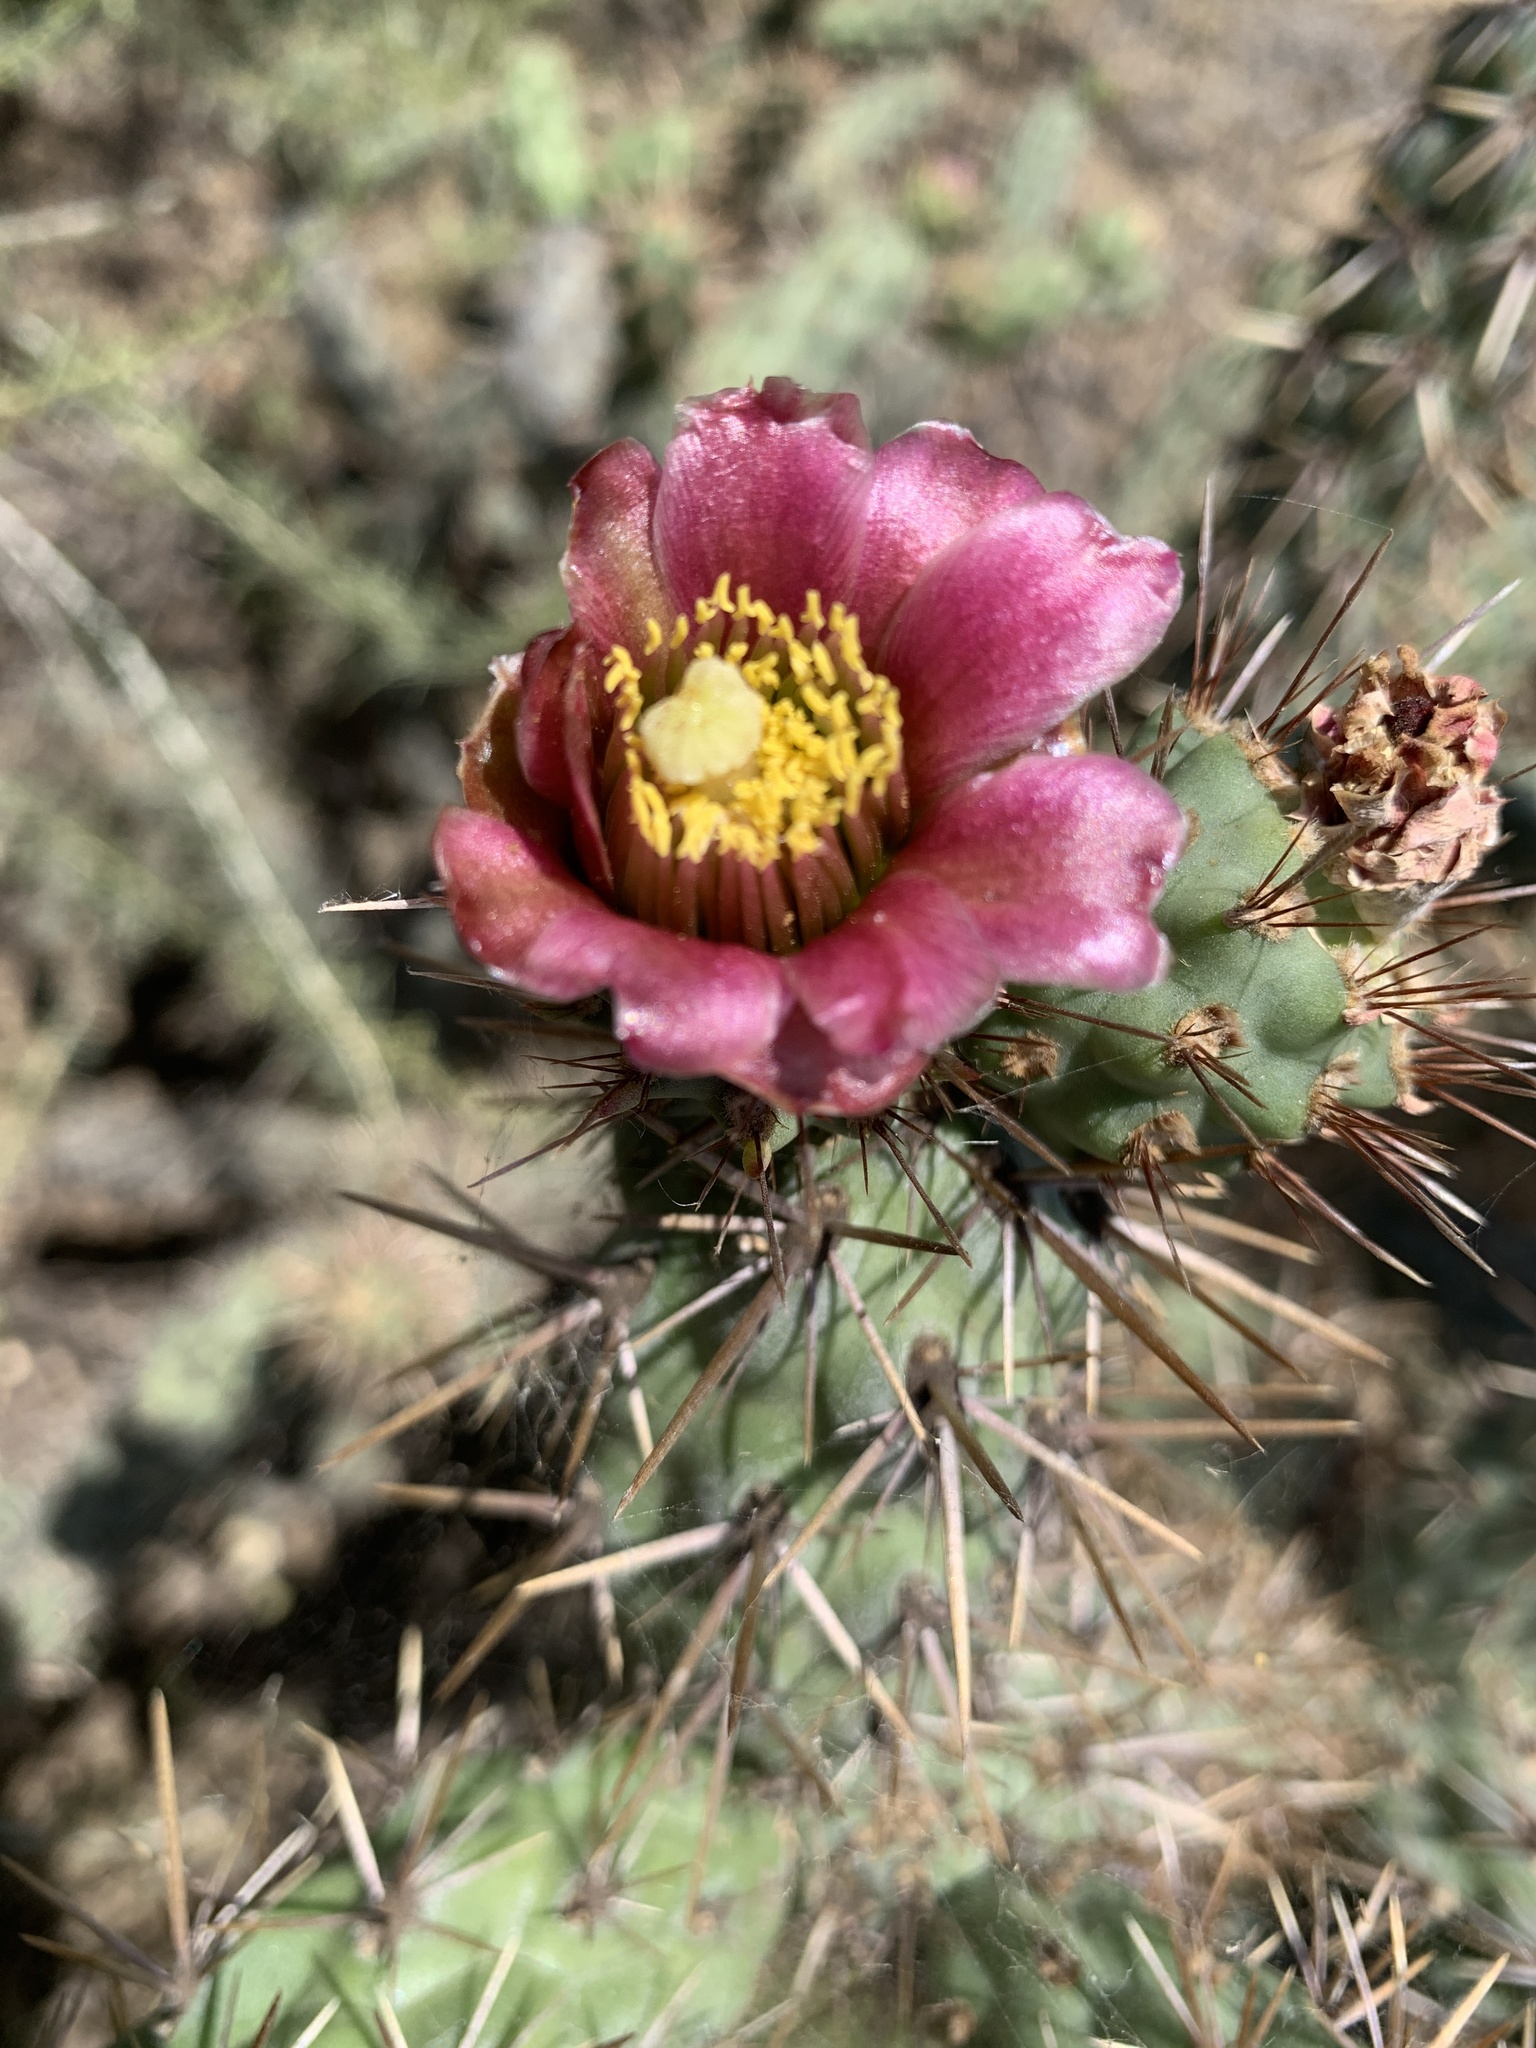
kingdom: Plantae
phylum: Tracheophyta
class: Magnoliopsida
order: Caryophyllales
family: Cactaceae
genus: Cylindropuntia
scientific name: Cylindropuntia prolifera
